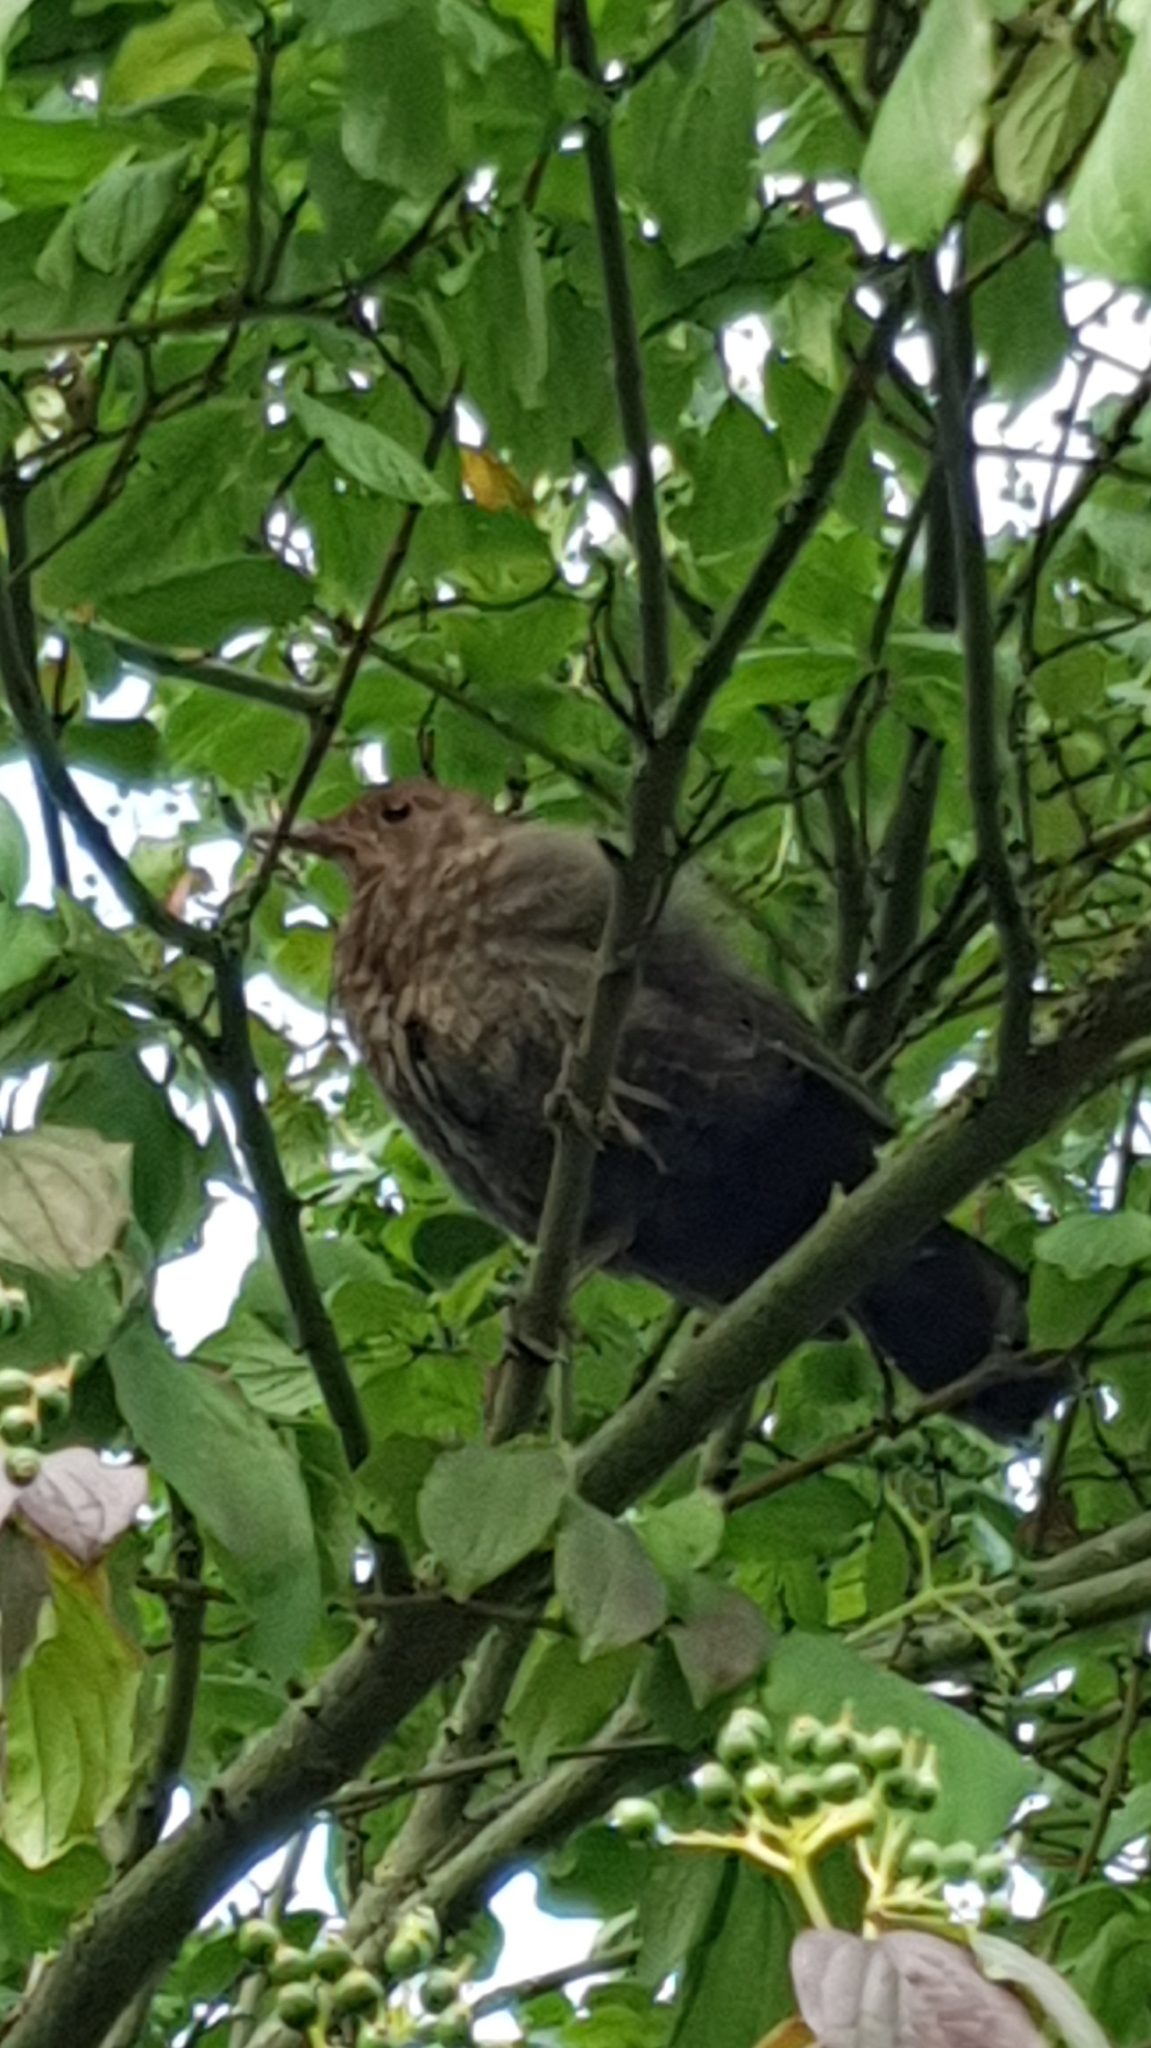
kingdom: Animalia
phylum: Chordata
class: Aves
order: Passeriformes
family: Turdidae
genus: Turdus
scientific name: Turdus merula
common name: Common blackbird
